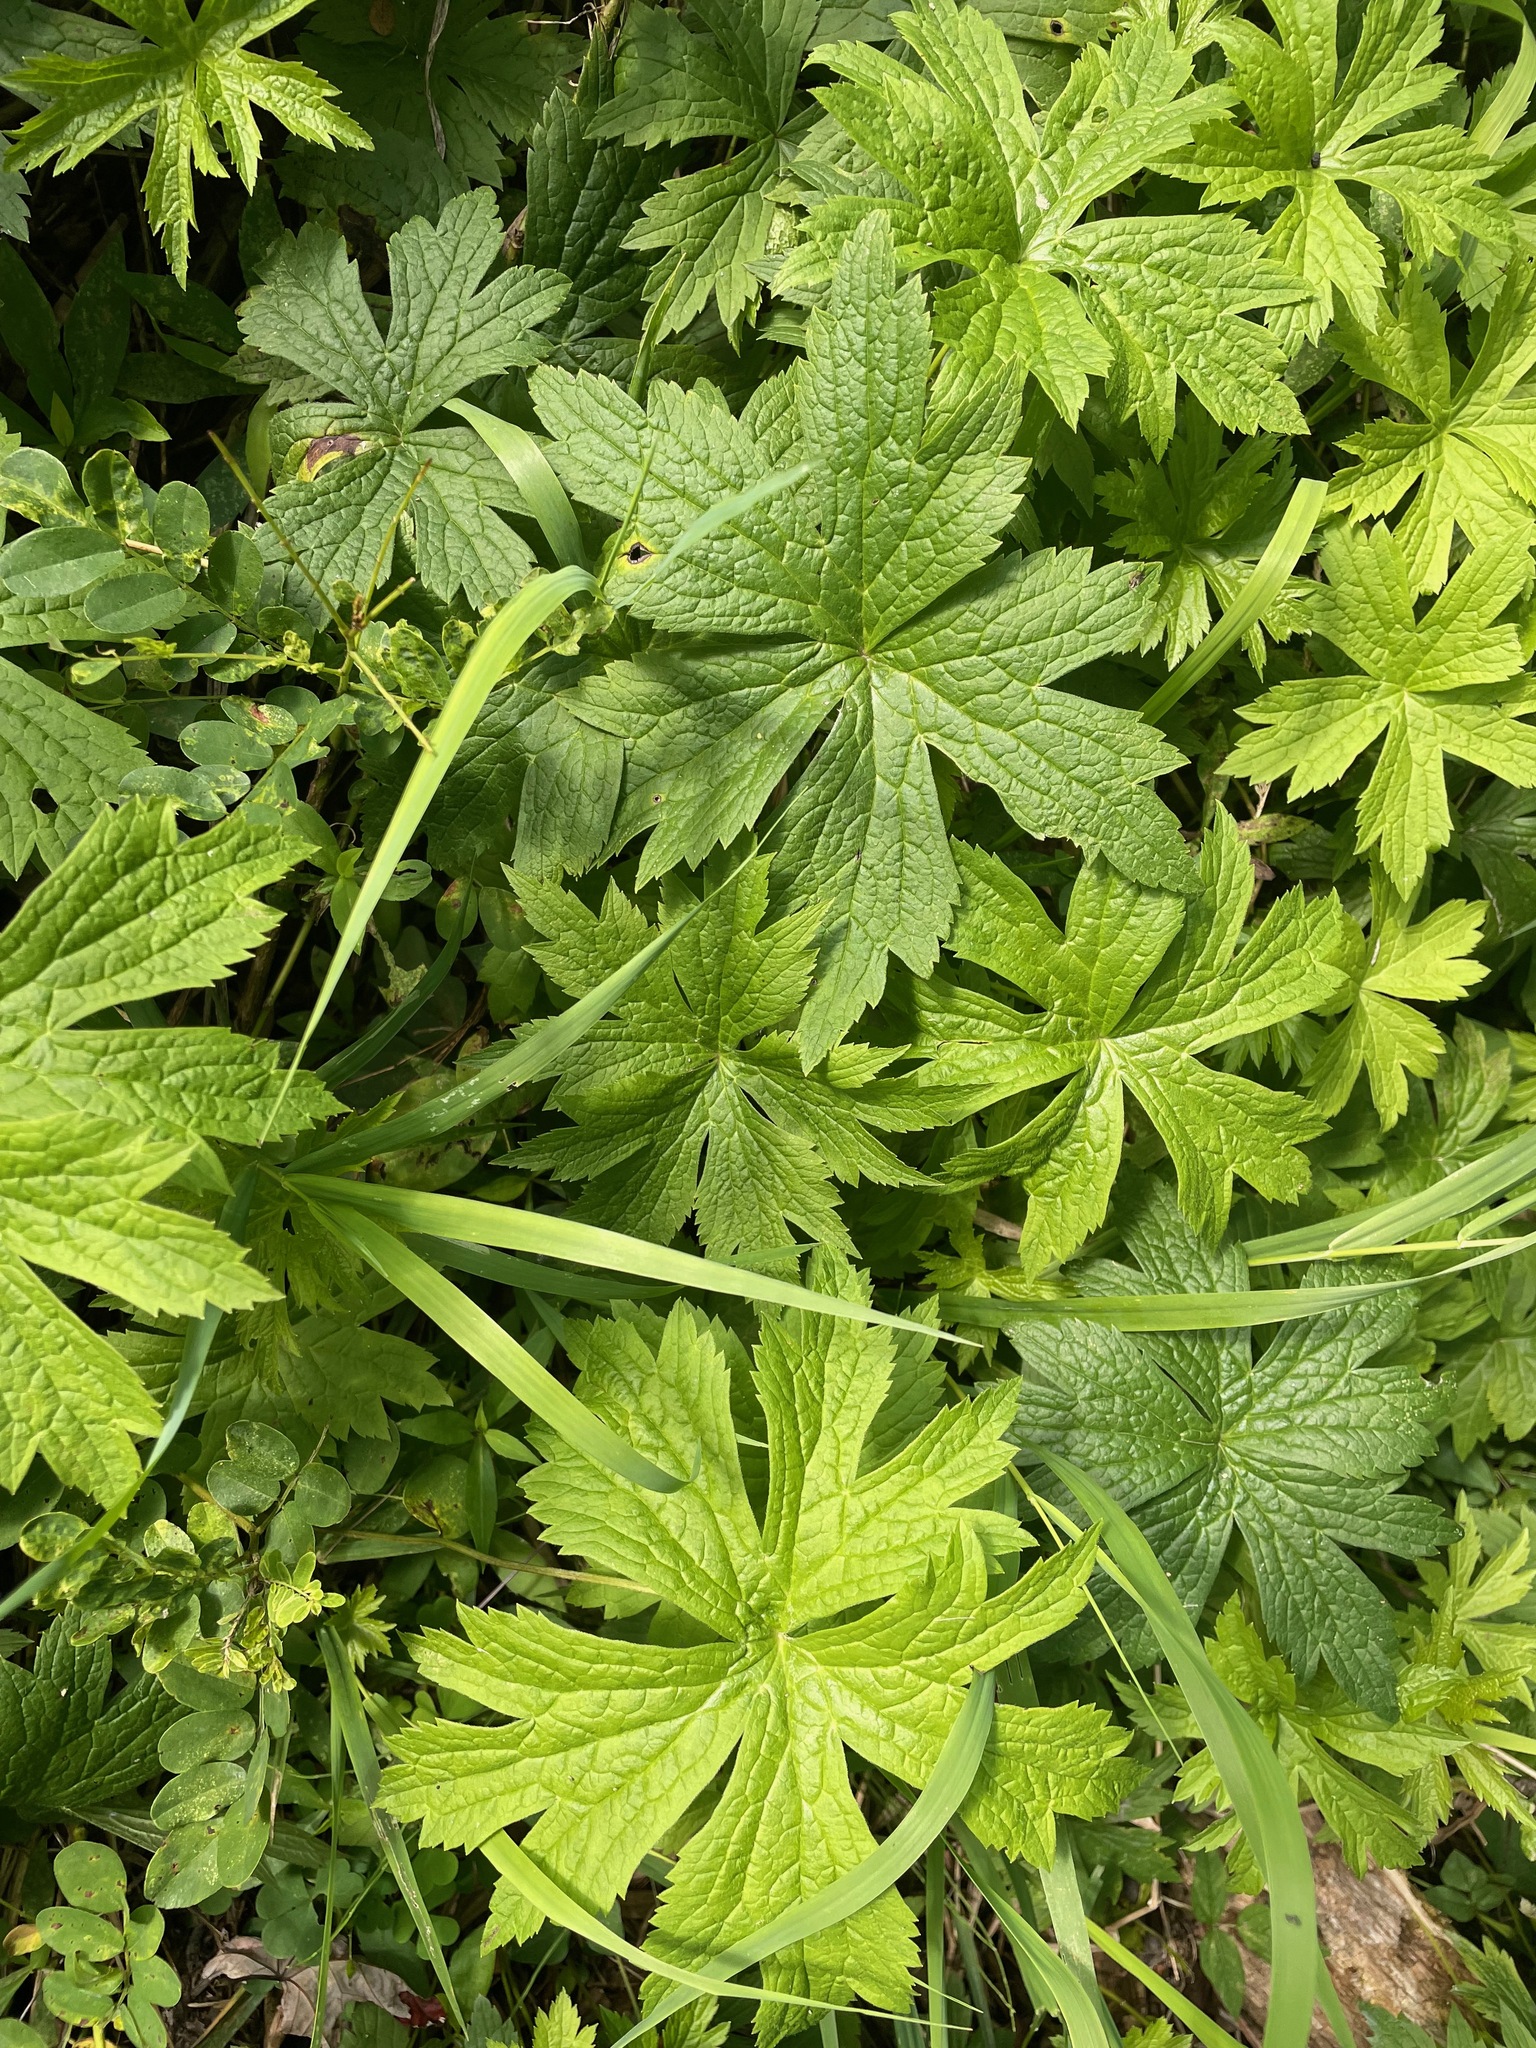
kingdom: Plantae
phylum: Tracheophyta
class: Magnoliopsida
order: Ranunculales
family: Ranunculaceae
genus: Anemonastrum
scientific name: Anemonastrum canadense
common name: Canada anemone
